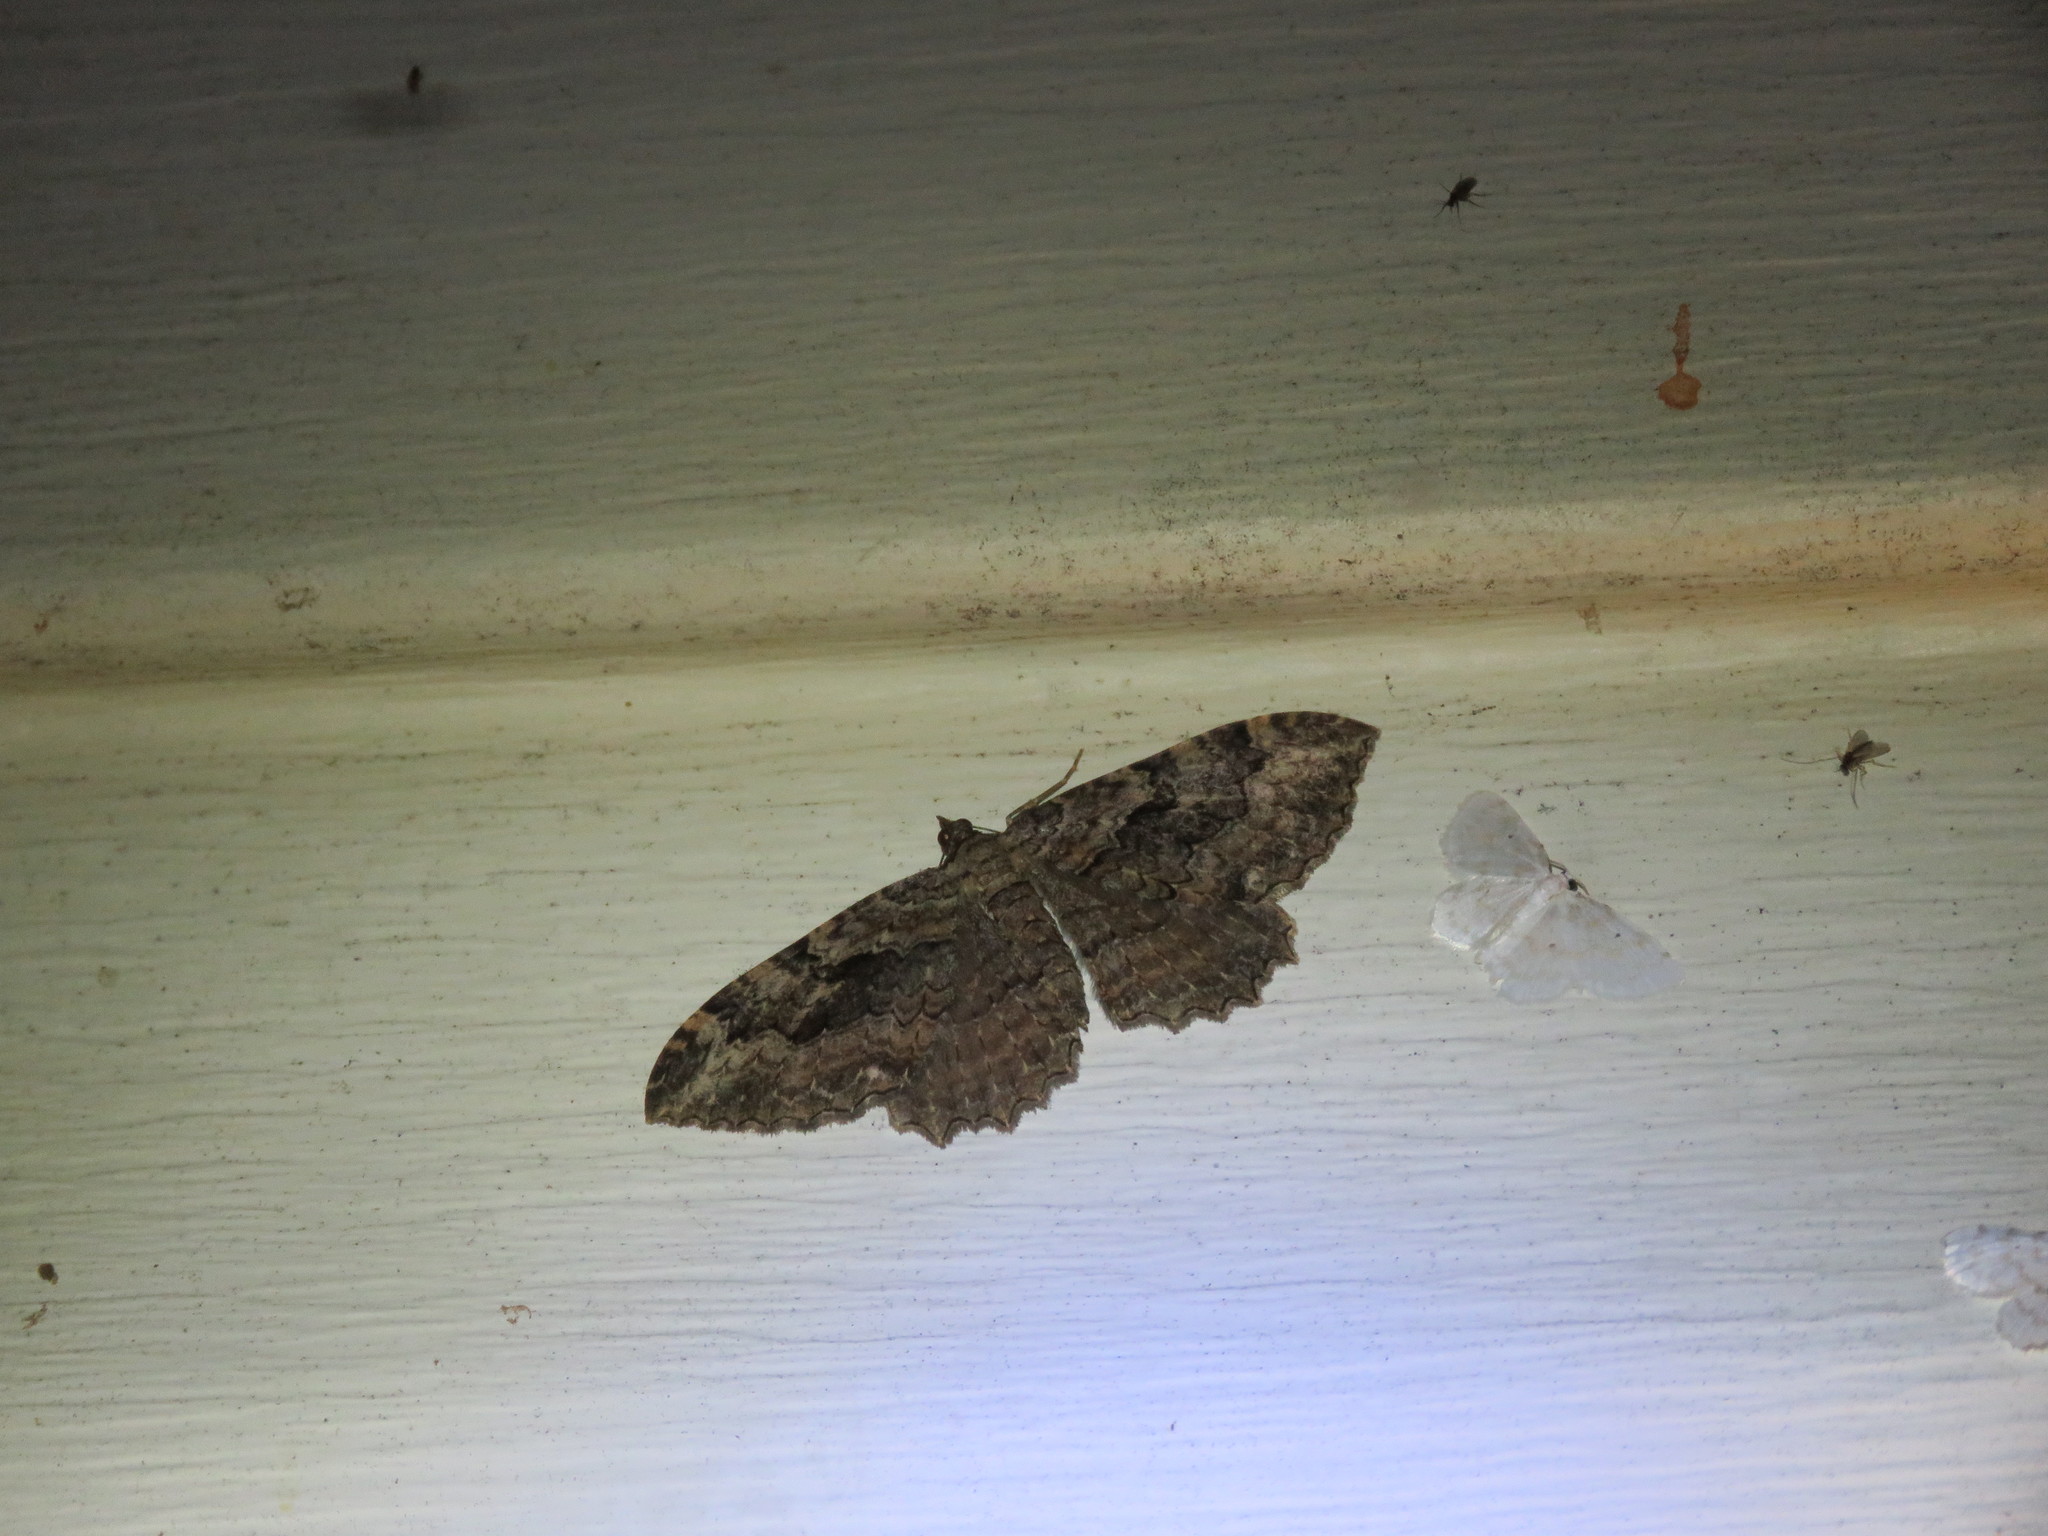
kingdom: Animalia
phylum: Arthropoda
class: Insecta
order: Lepidoptera
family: Geometridae
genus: Rheumaptera
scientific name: Rheumaptera
